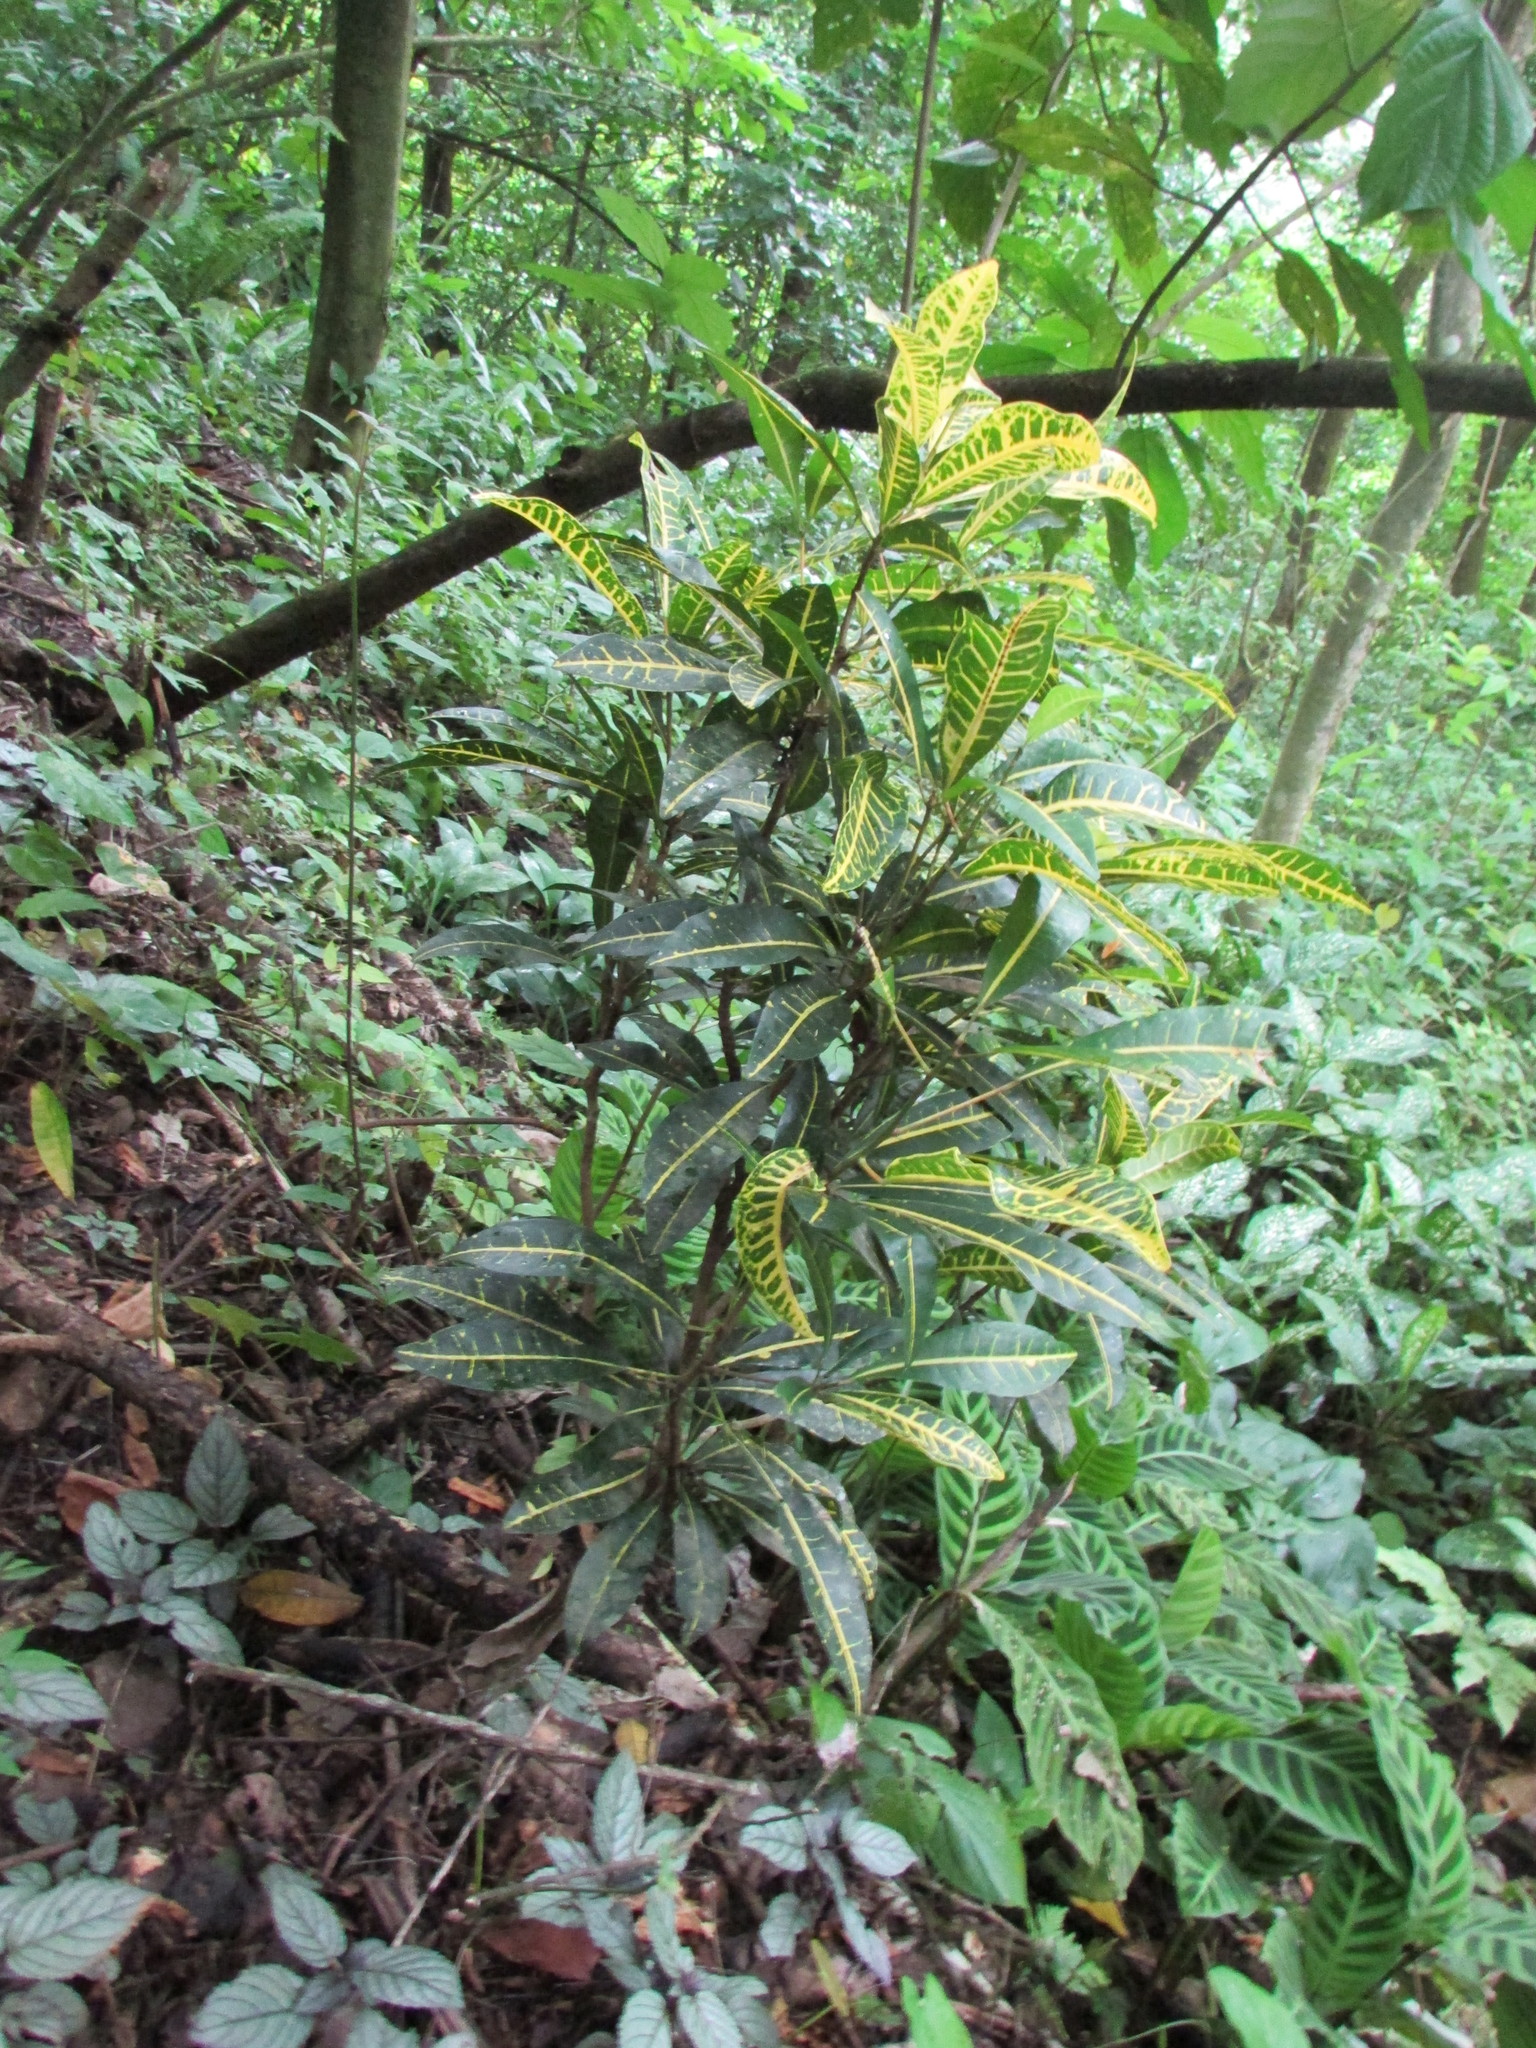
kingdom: Plantae
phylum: Tracheophyta
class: Magnoliopsida
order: Malpighiales
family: Euphorbiaceae
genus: Codiaeum
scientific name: Codiaeum variegatum
